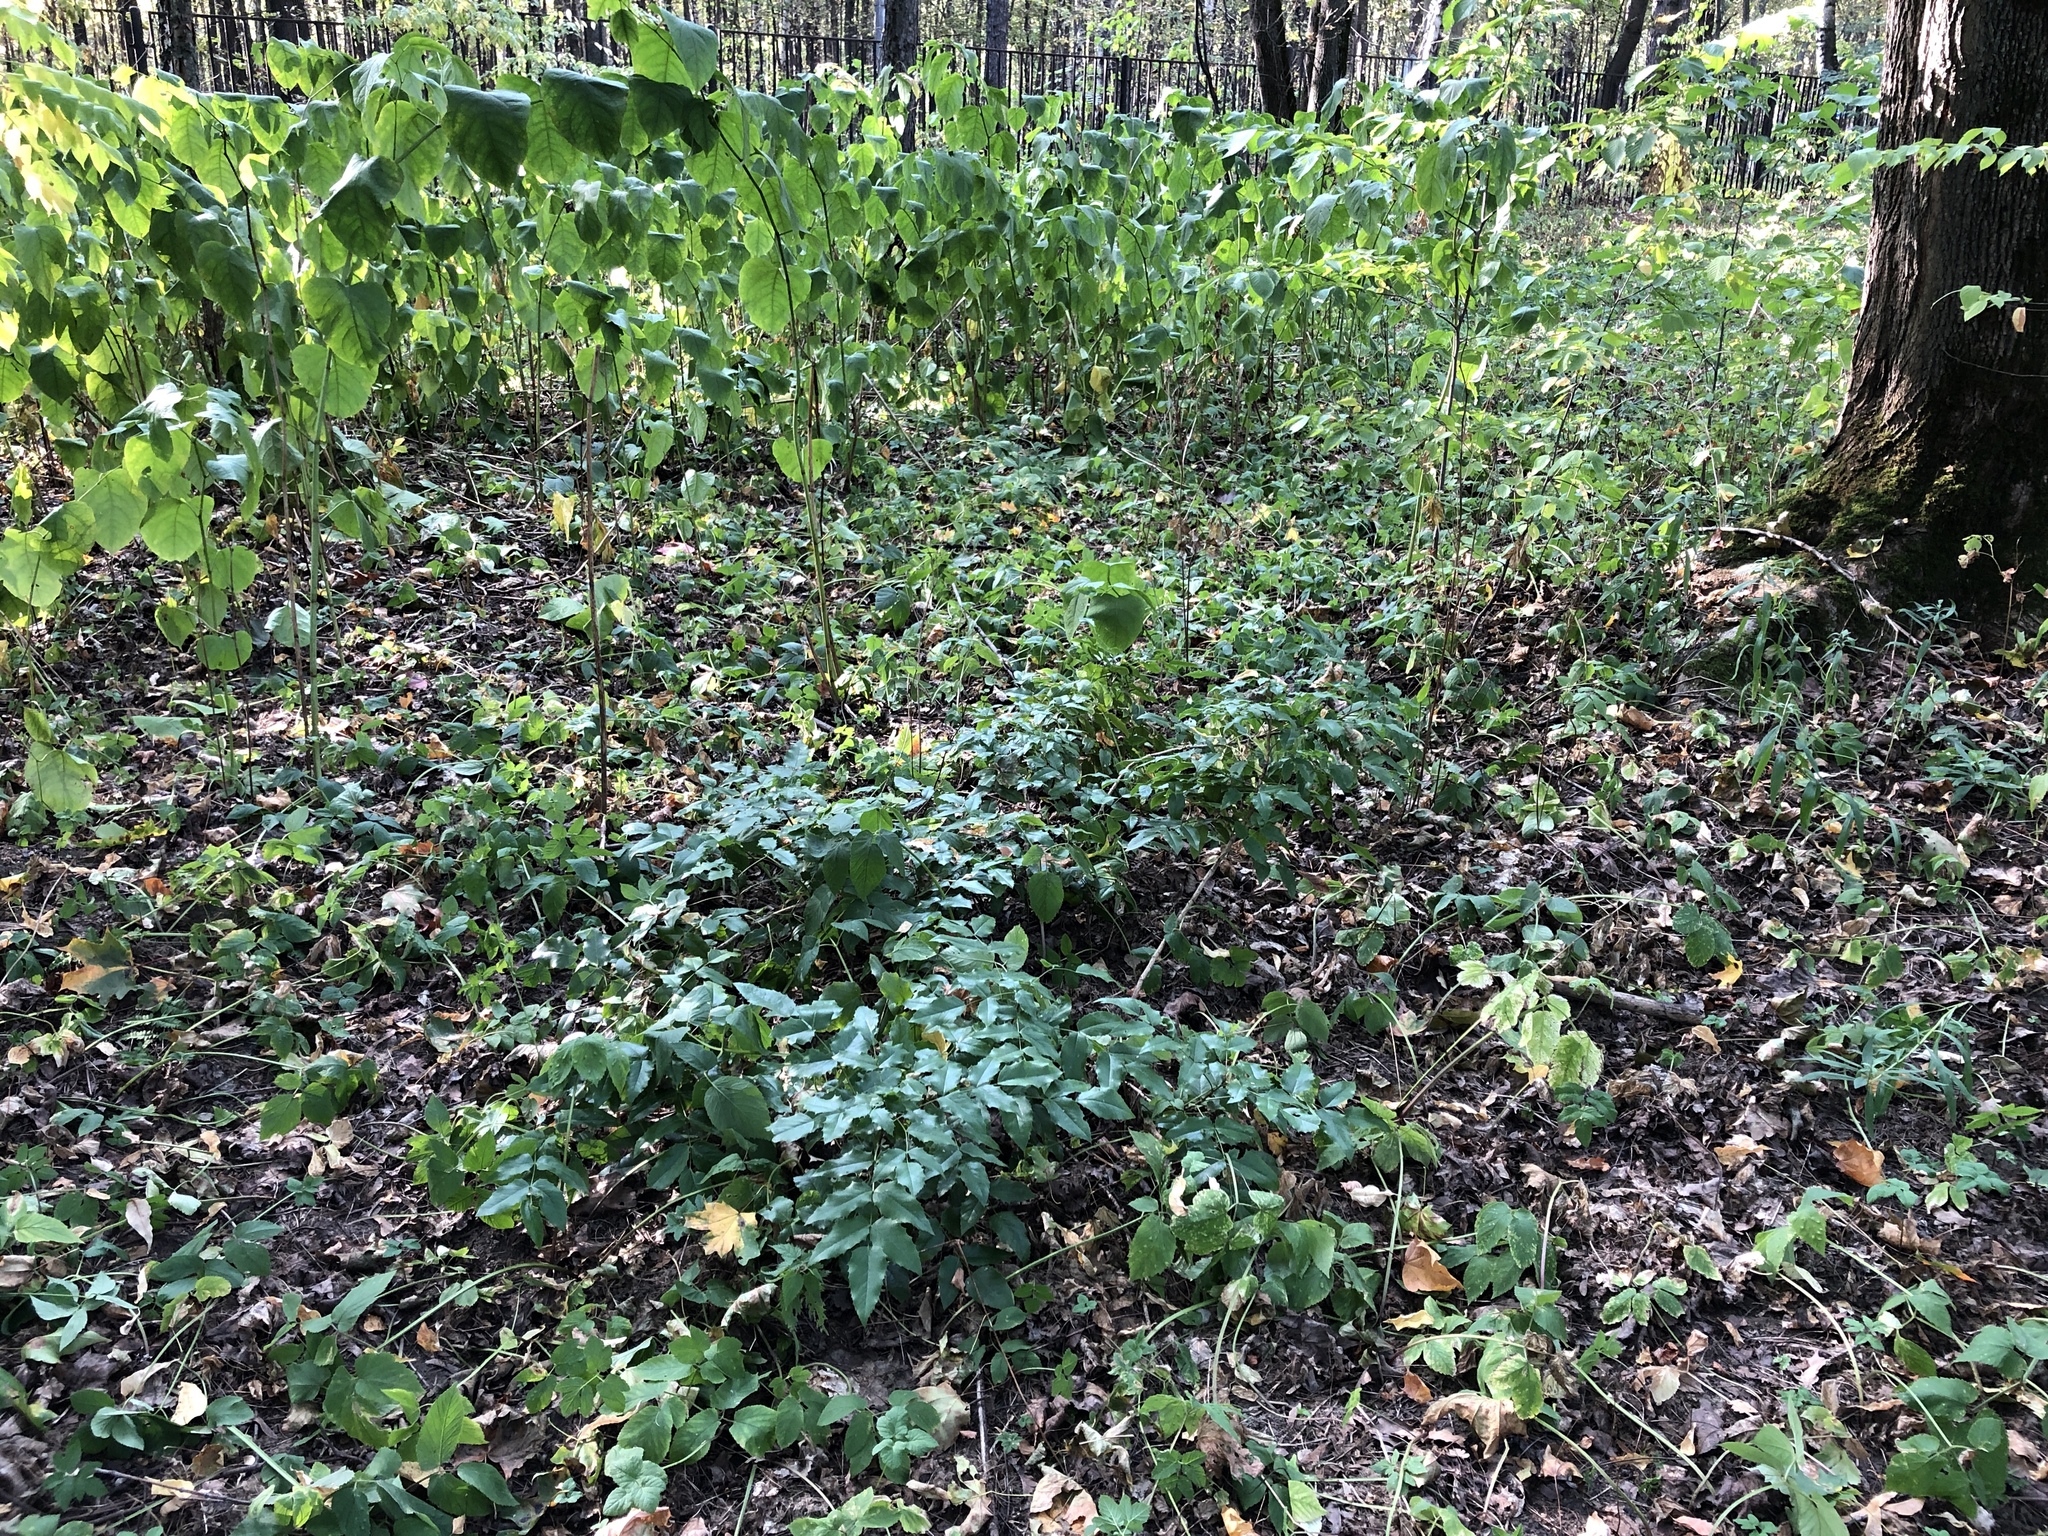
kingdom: Plantae
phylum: Tracheophyta
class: Magnoliopsida
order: Ranunculales
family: Berberidaceae
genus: Mahonia
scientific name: Mahonia aquifolium
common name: Oregon-grape
